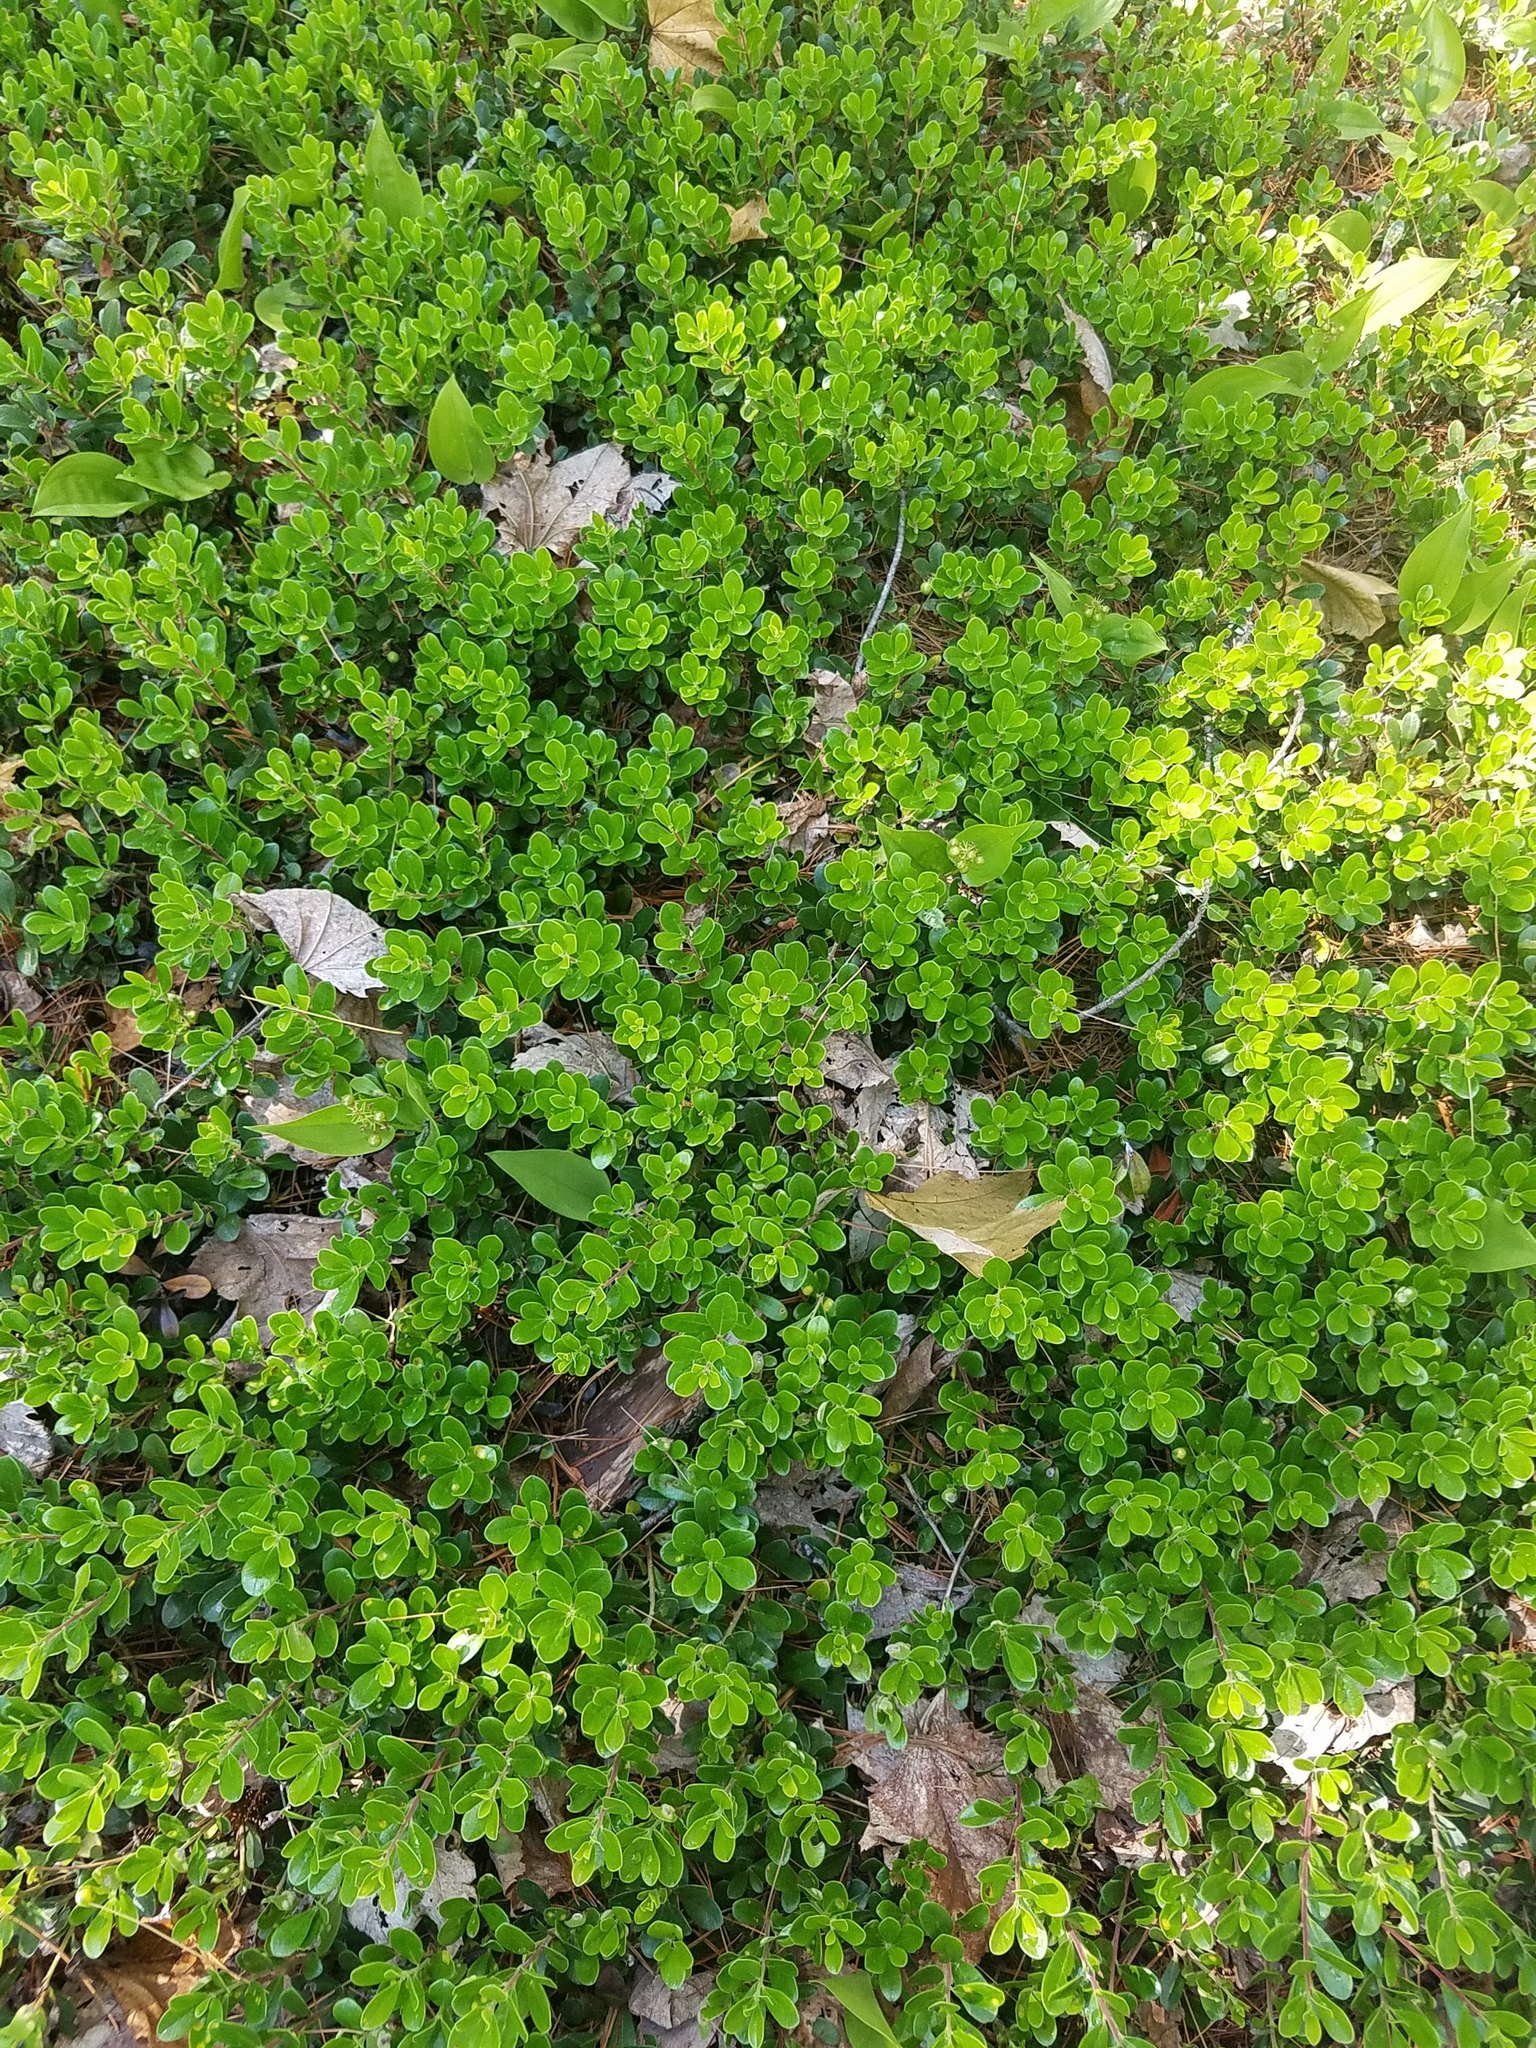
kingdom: Plantae
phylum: Tracheophyta
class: Magnoliopsida
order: Ericales
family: Ericaceae
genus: Arctostaphylos
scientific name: Arctostaphylos uva-ursi
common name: Bearberry
